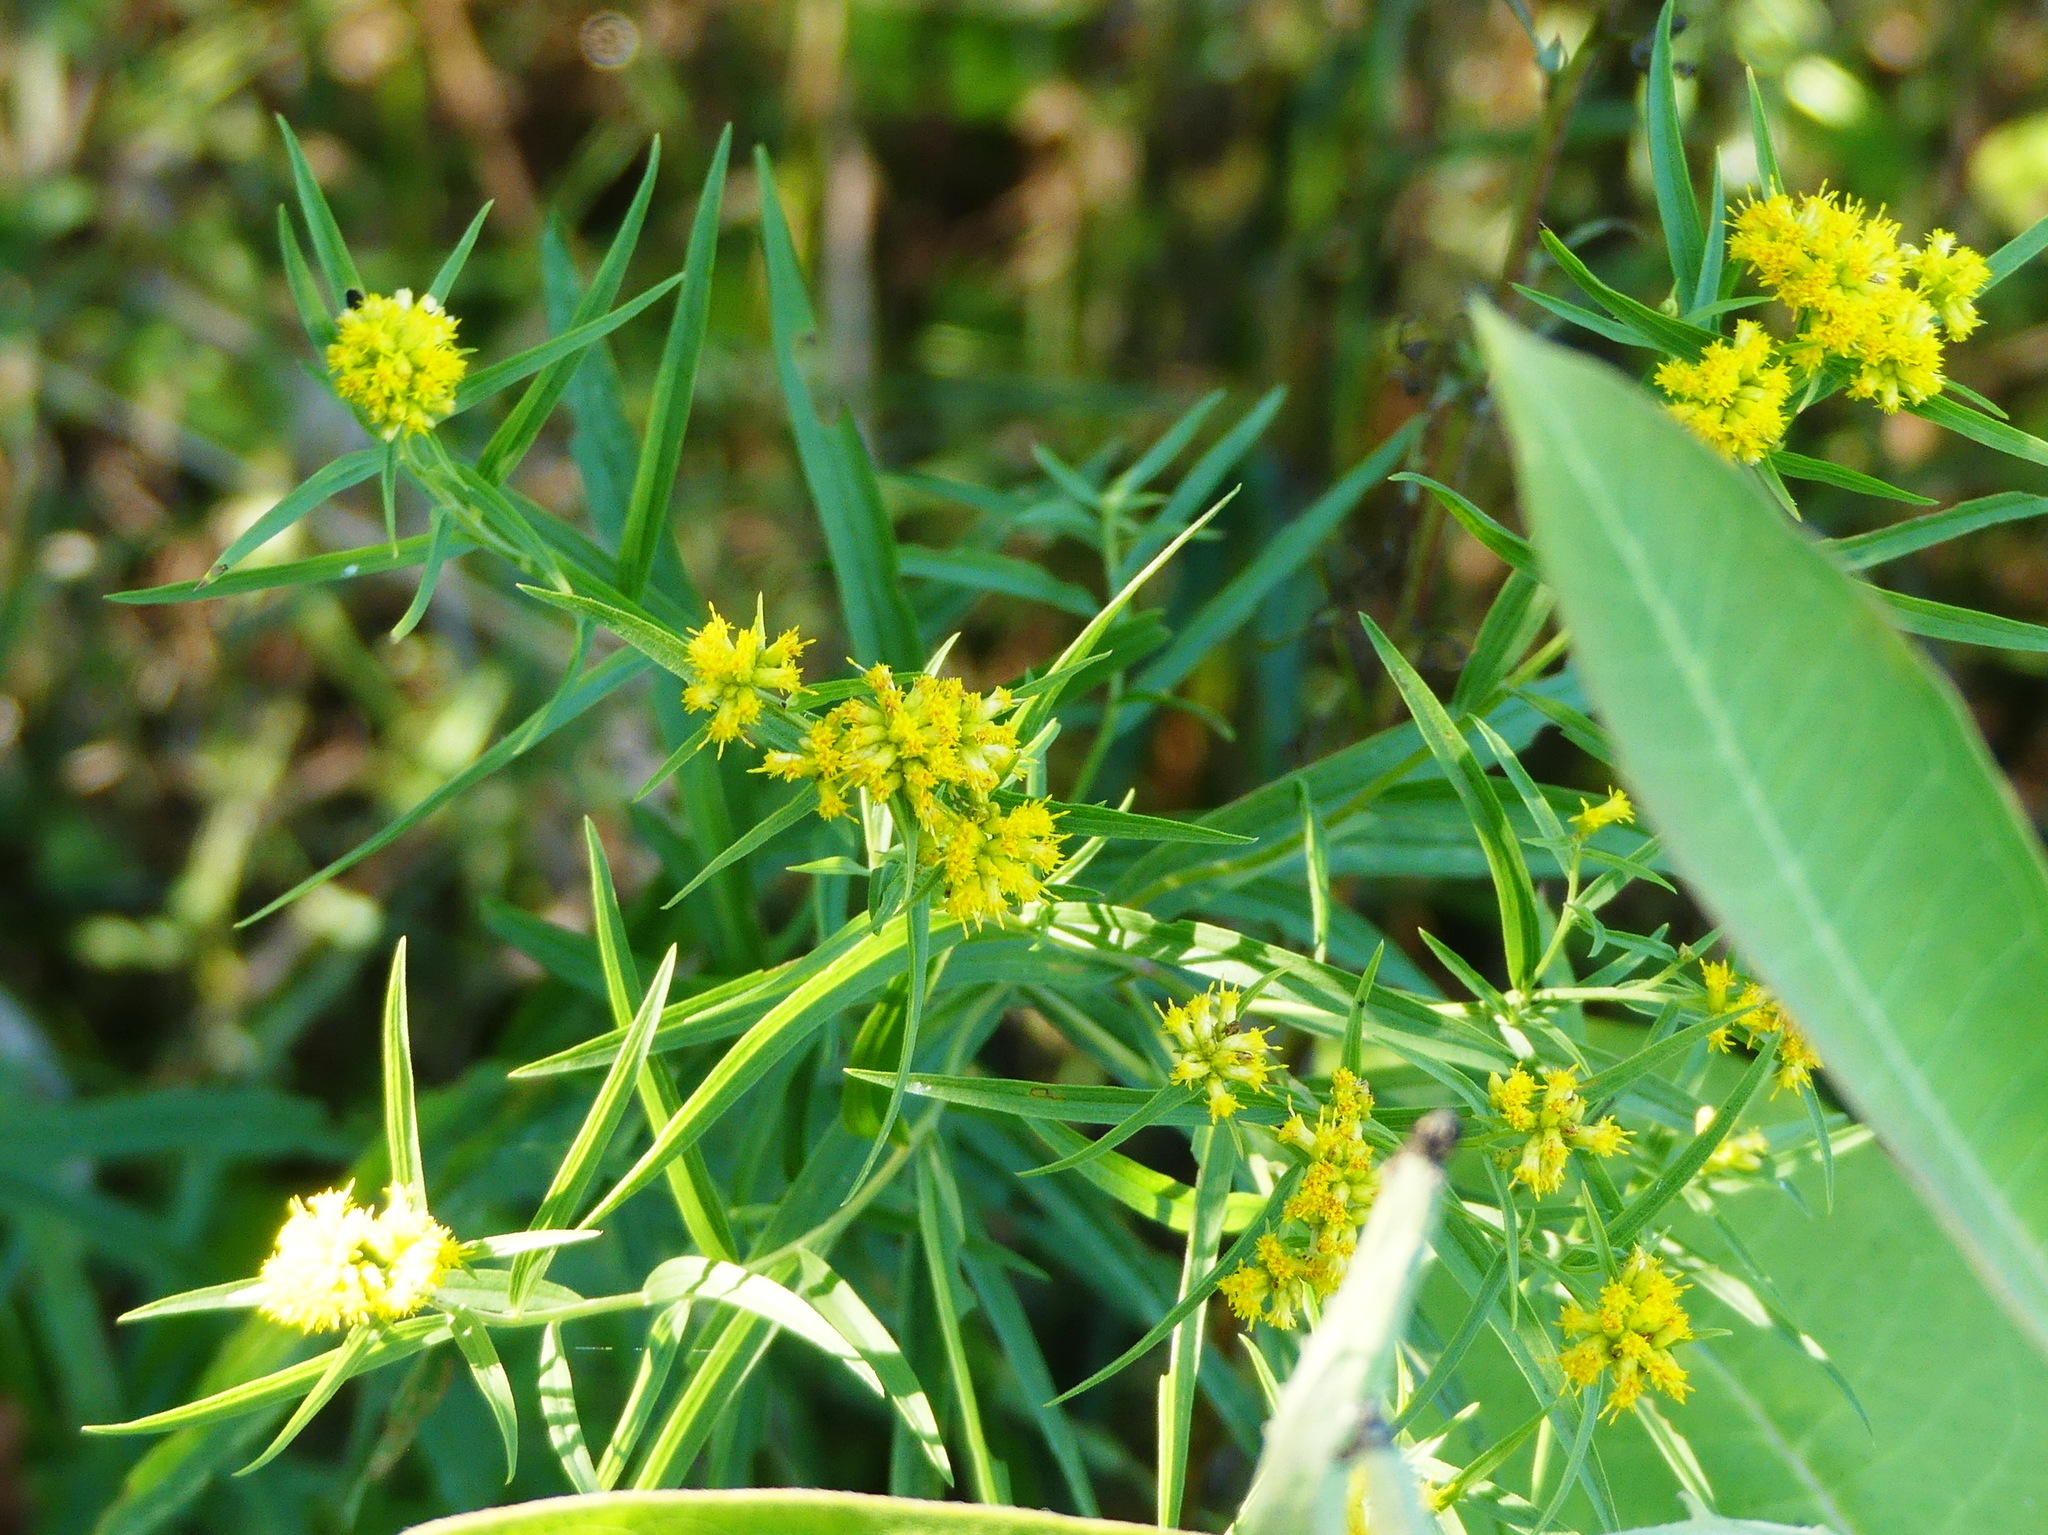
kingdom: Plantae
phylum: Tracheophyta
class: Magnoliopsida
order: Asterales
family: Asteraceae
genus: Euthamia
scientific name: Euthamia graminifolia
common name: Common goldentop
